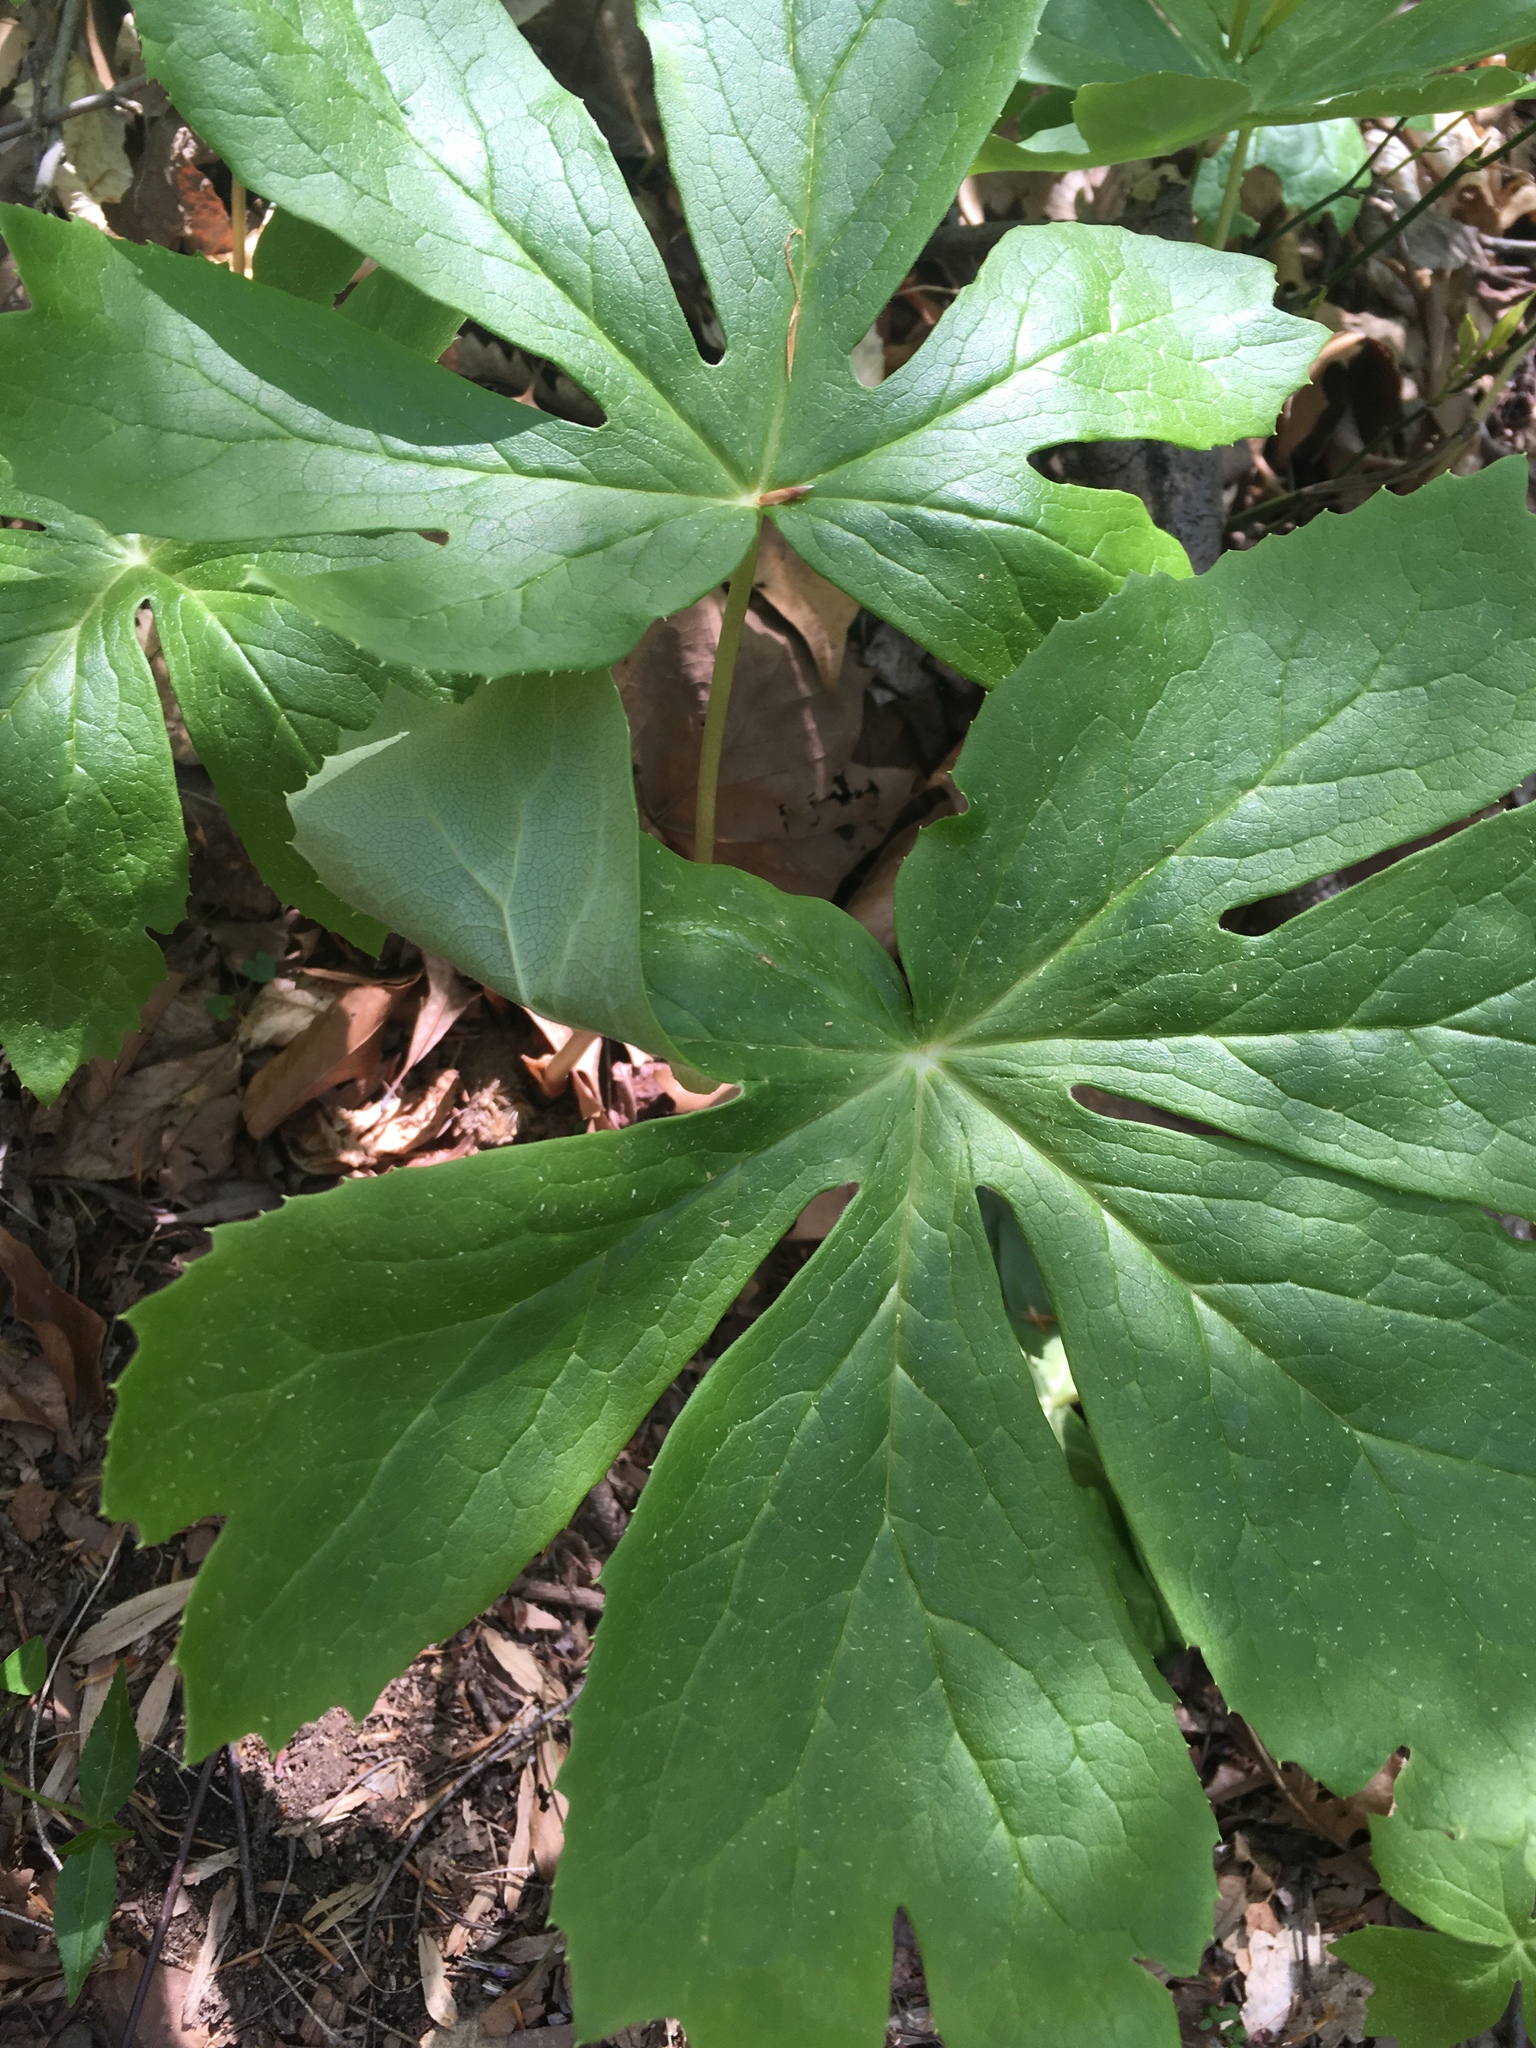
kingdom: Plantae
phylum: Tracheophyta
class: Magnoliopsida
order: Ranunculales
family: Berberidaceae
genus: Podophyllum
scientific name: Podophyllum peltatum
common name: Wild mandrake
